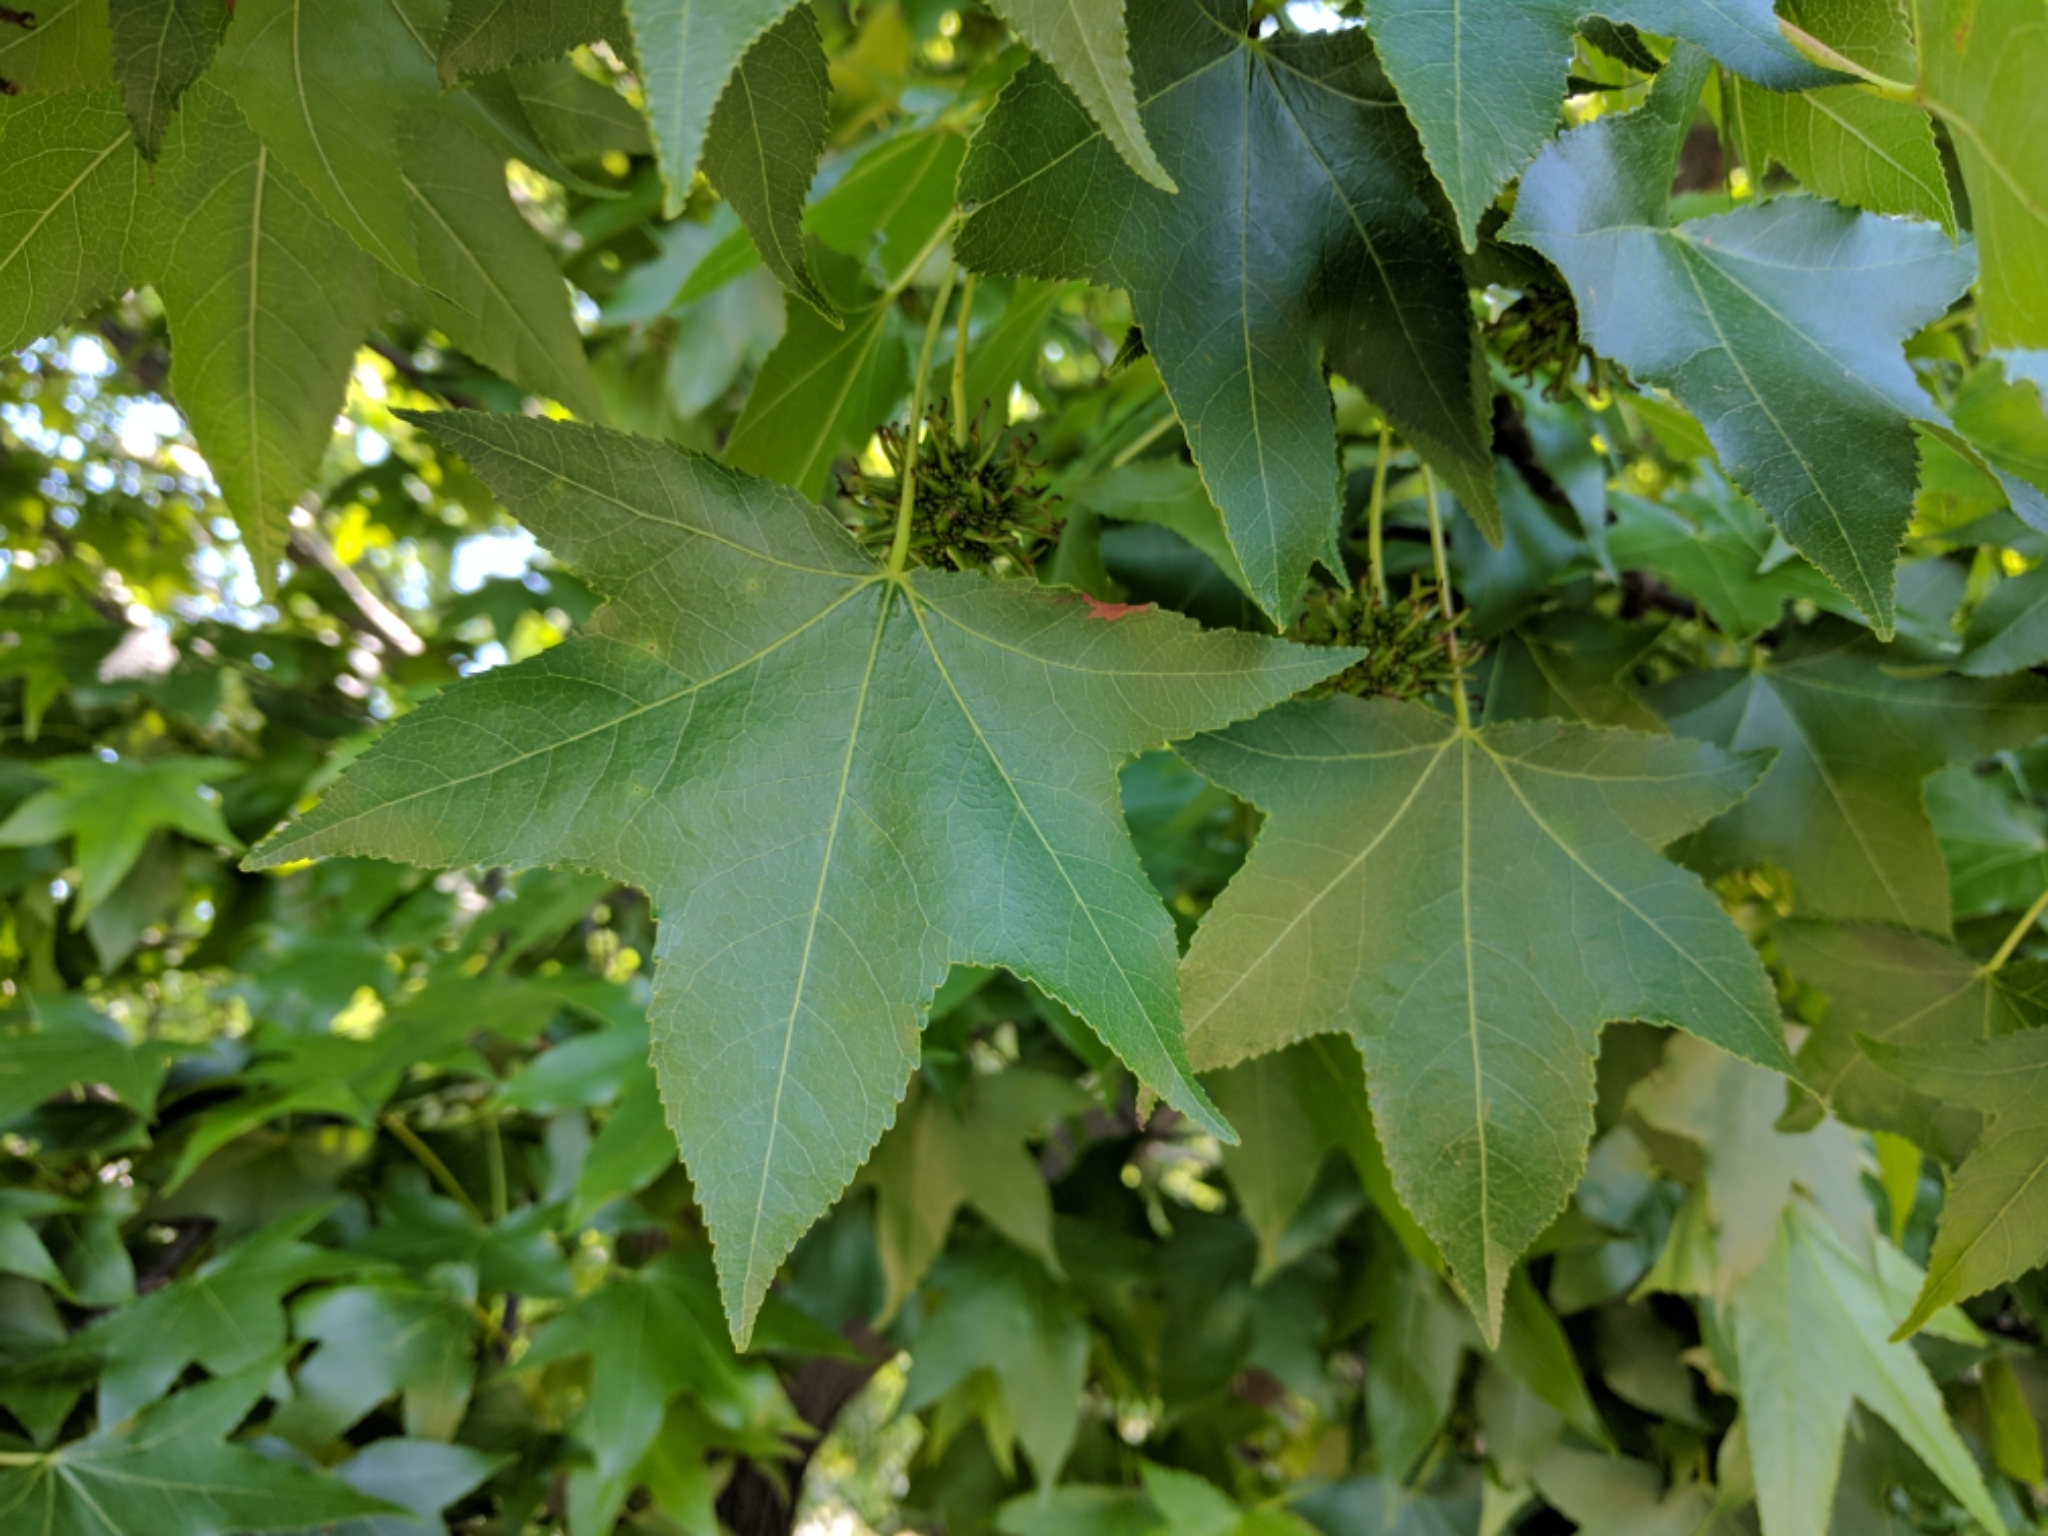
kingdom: Plantae
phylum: Tracheophyta
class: Magnoliopsida
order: Saxifragales
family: Altingiaceae
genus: Liquidambar
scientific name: Liquidambar styraciflua
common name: Sweet gum
